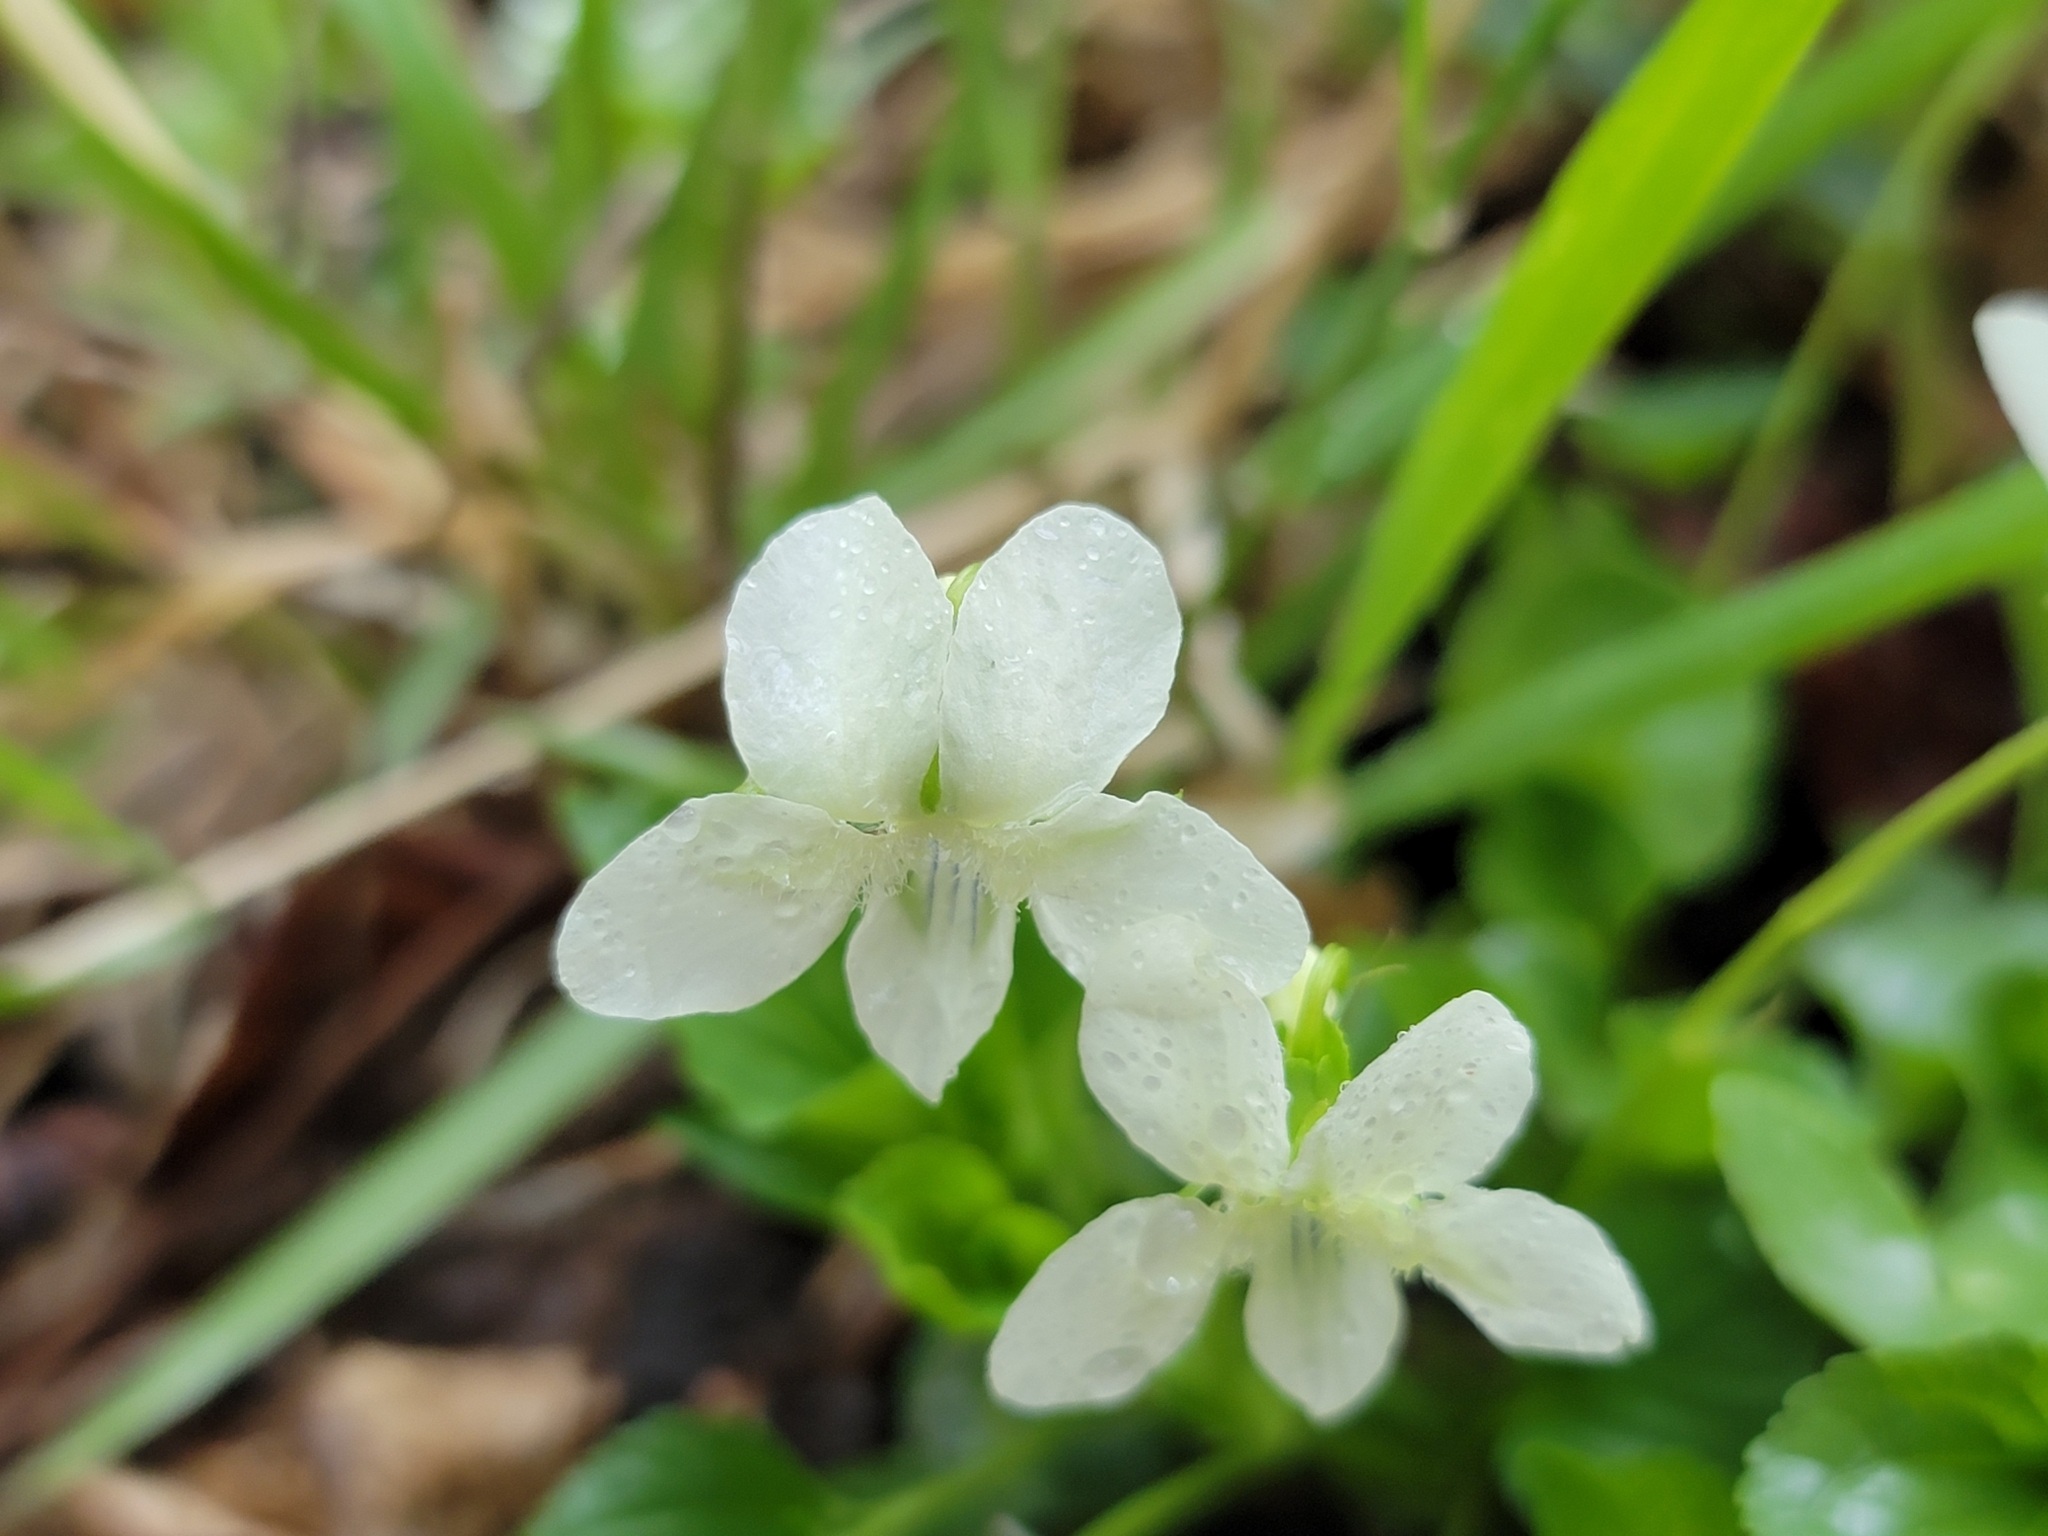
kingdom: Plantae
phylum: Tracheophyta
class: Magnoliopsida
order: Malpighiales
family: Violaceae
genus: Viola
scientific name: Viola striata
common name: Cream violet
